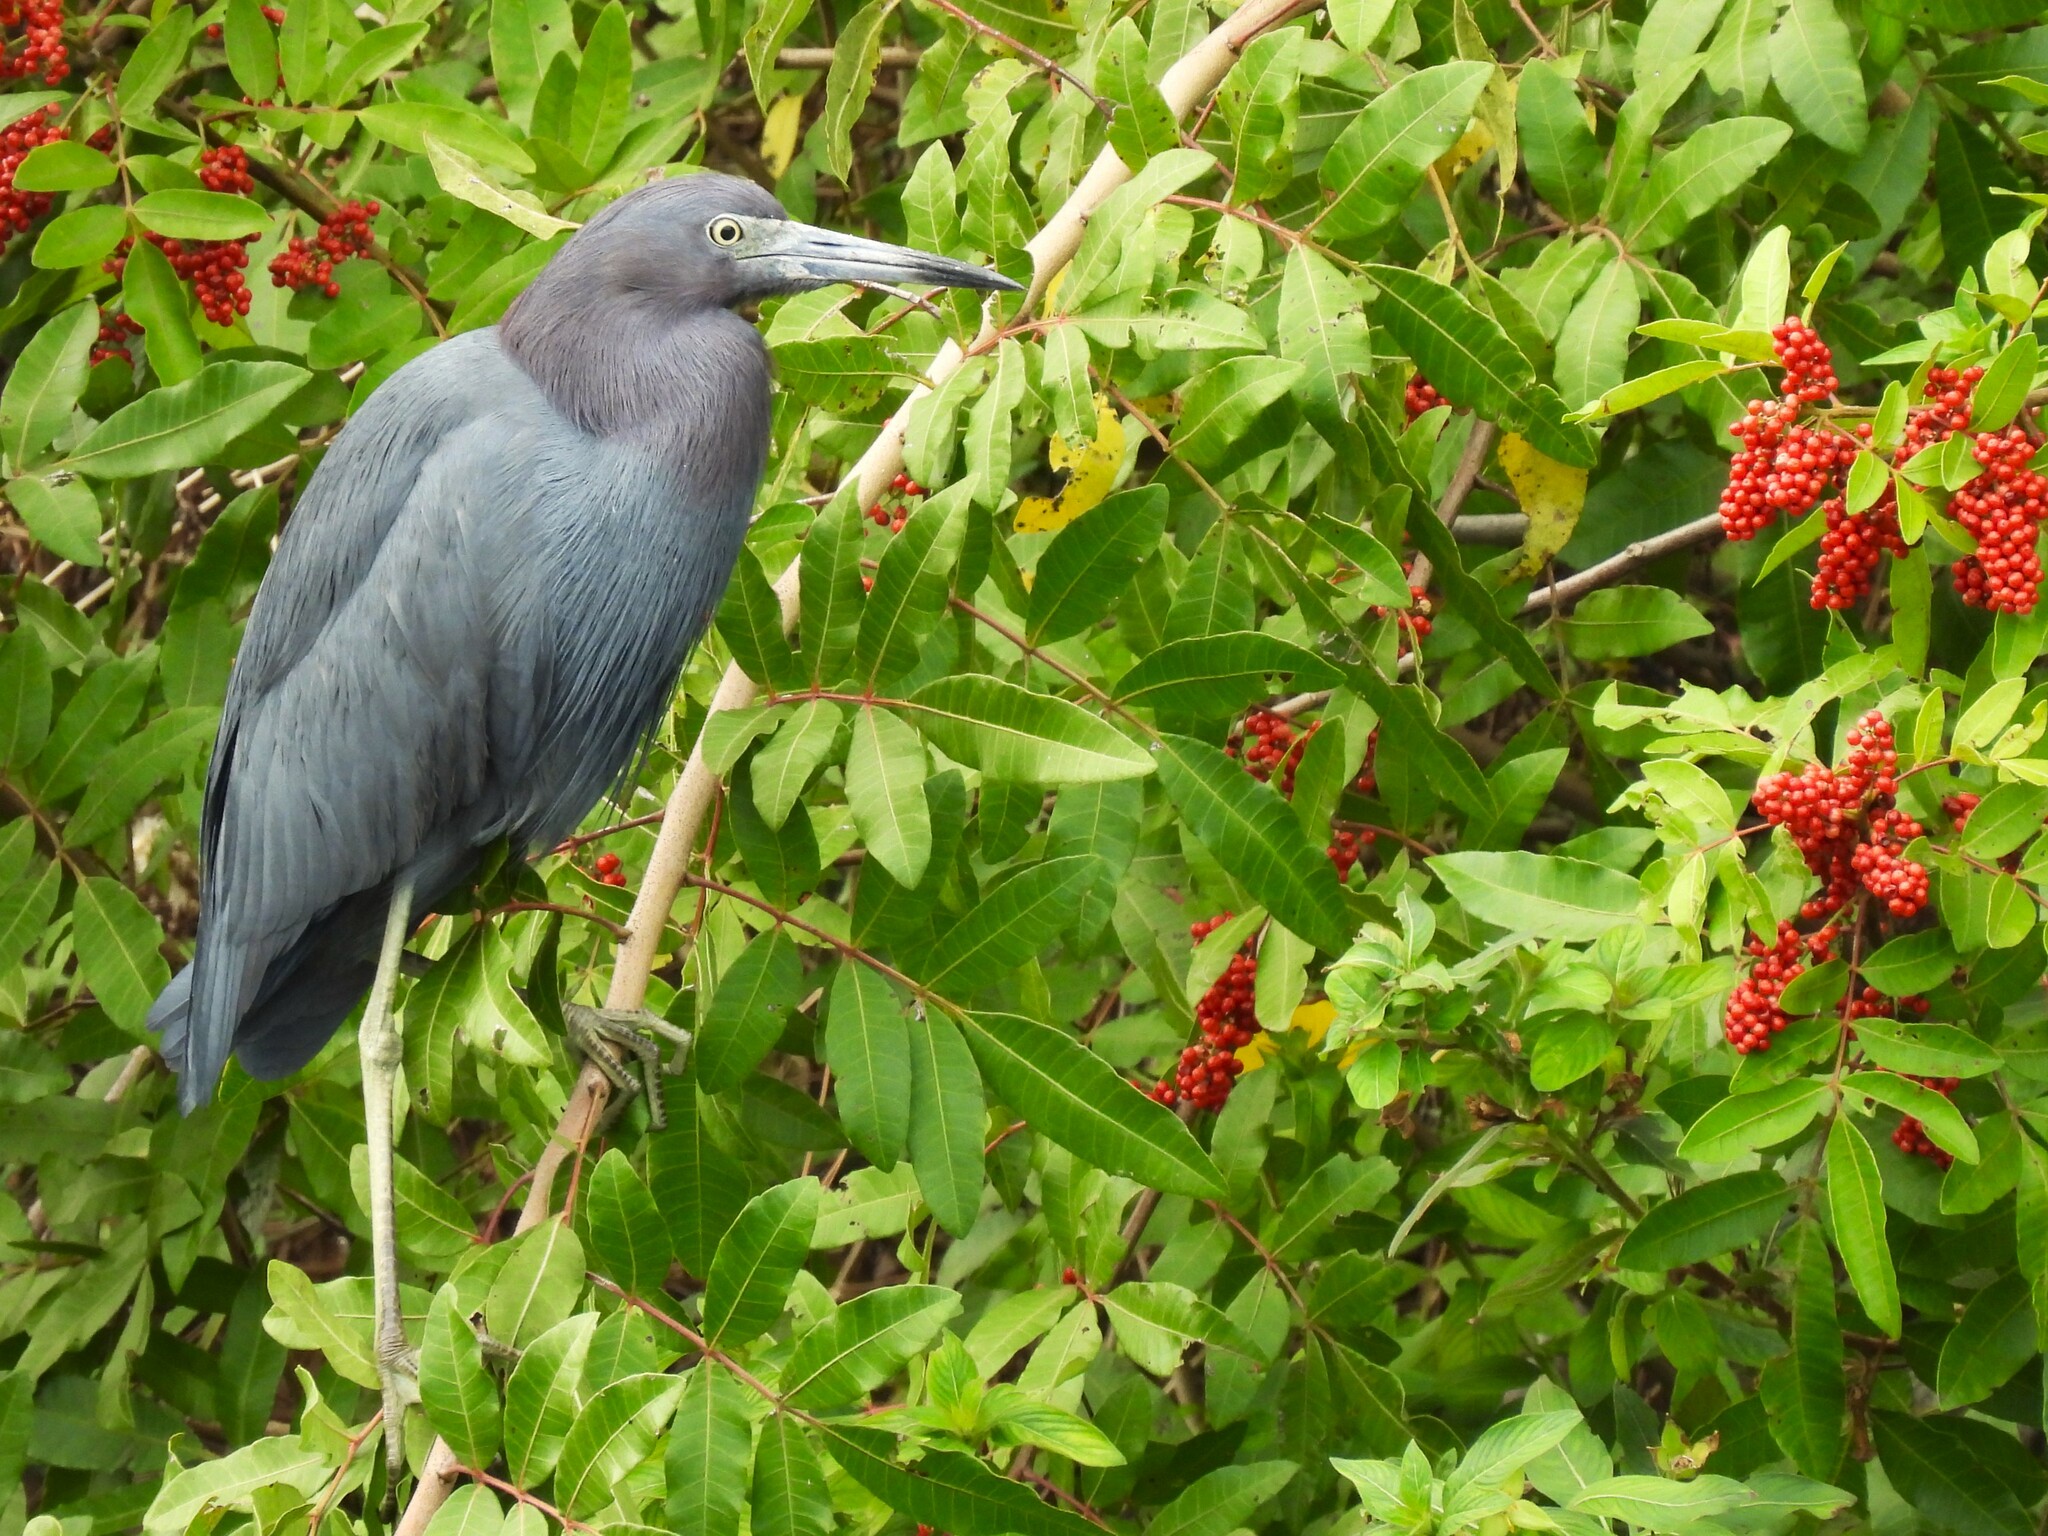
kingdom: Animalia
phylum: Chordata
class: Aves
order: Pelecaniformes
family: Ardeidae
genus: Egretta
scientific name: Egretta caerulea
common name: Little blue heron
